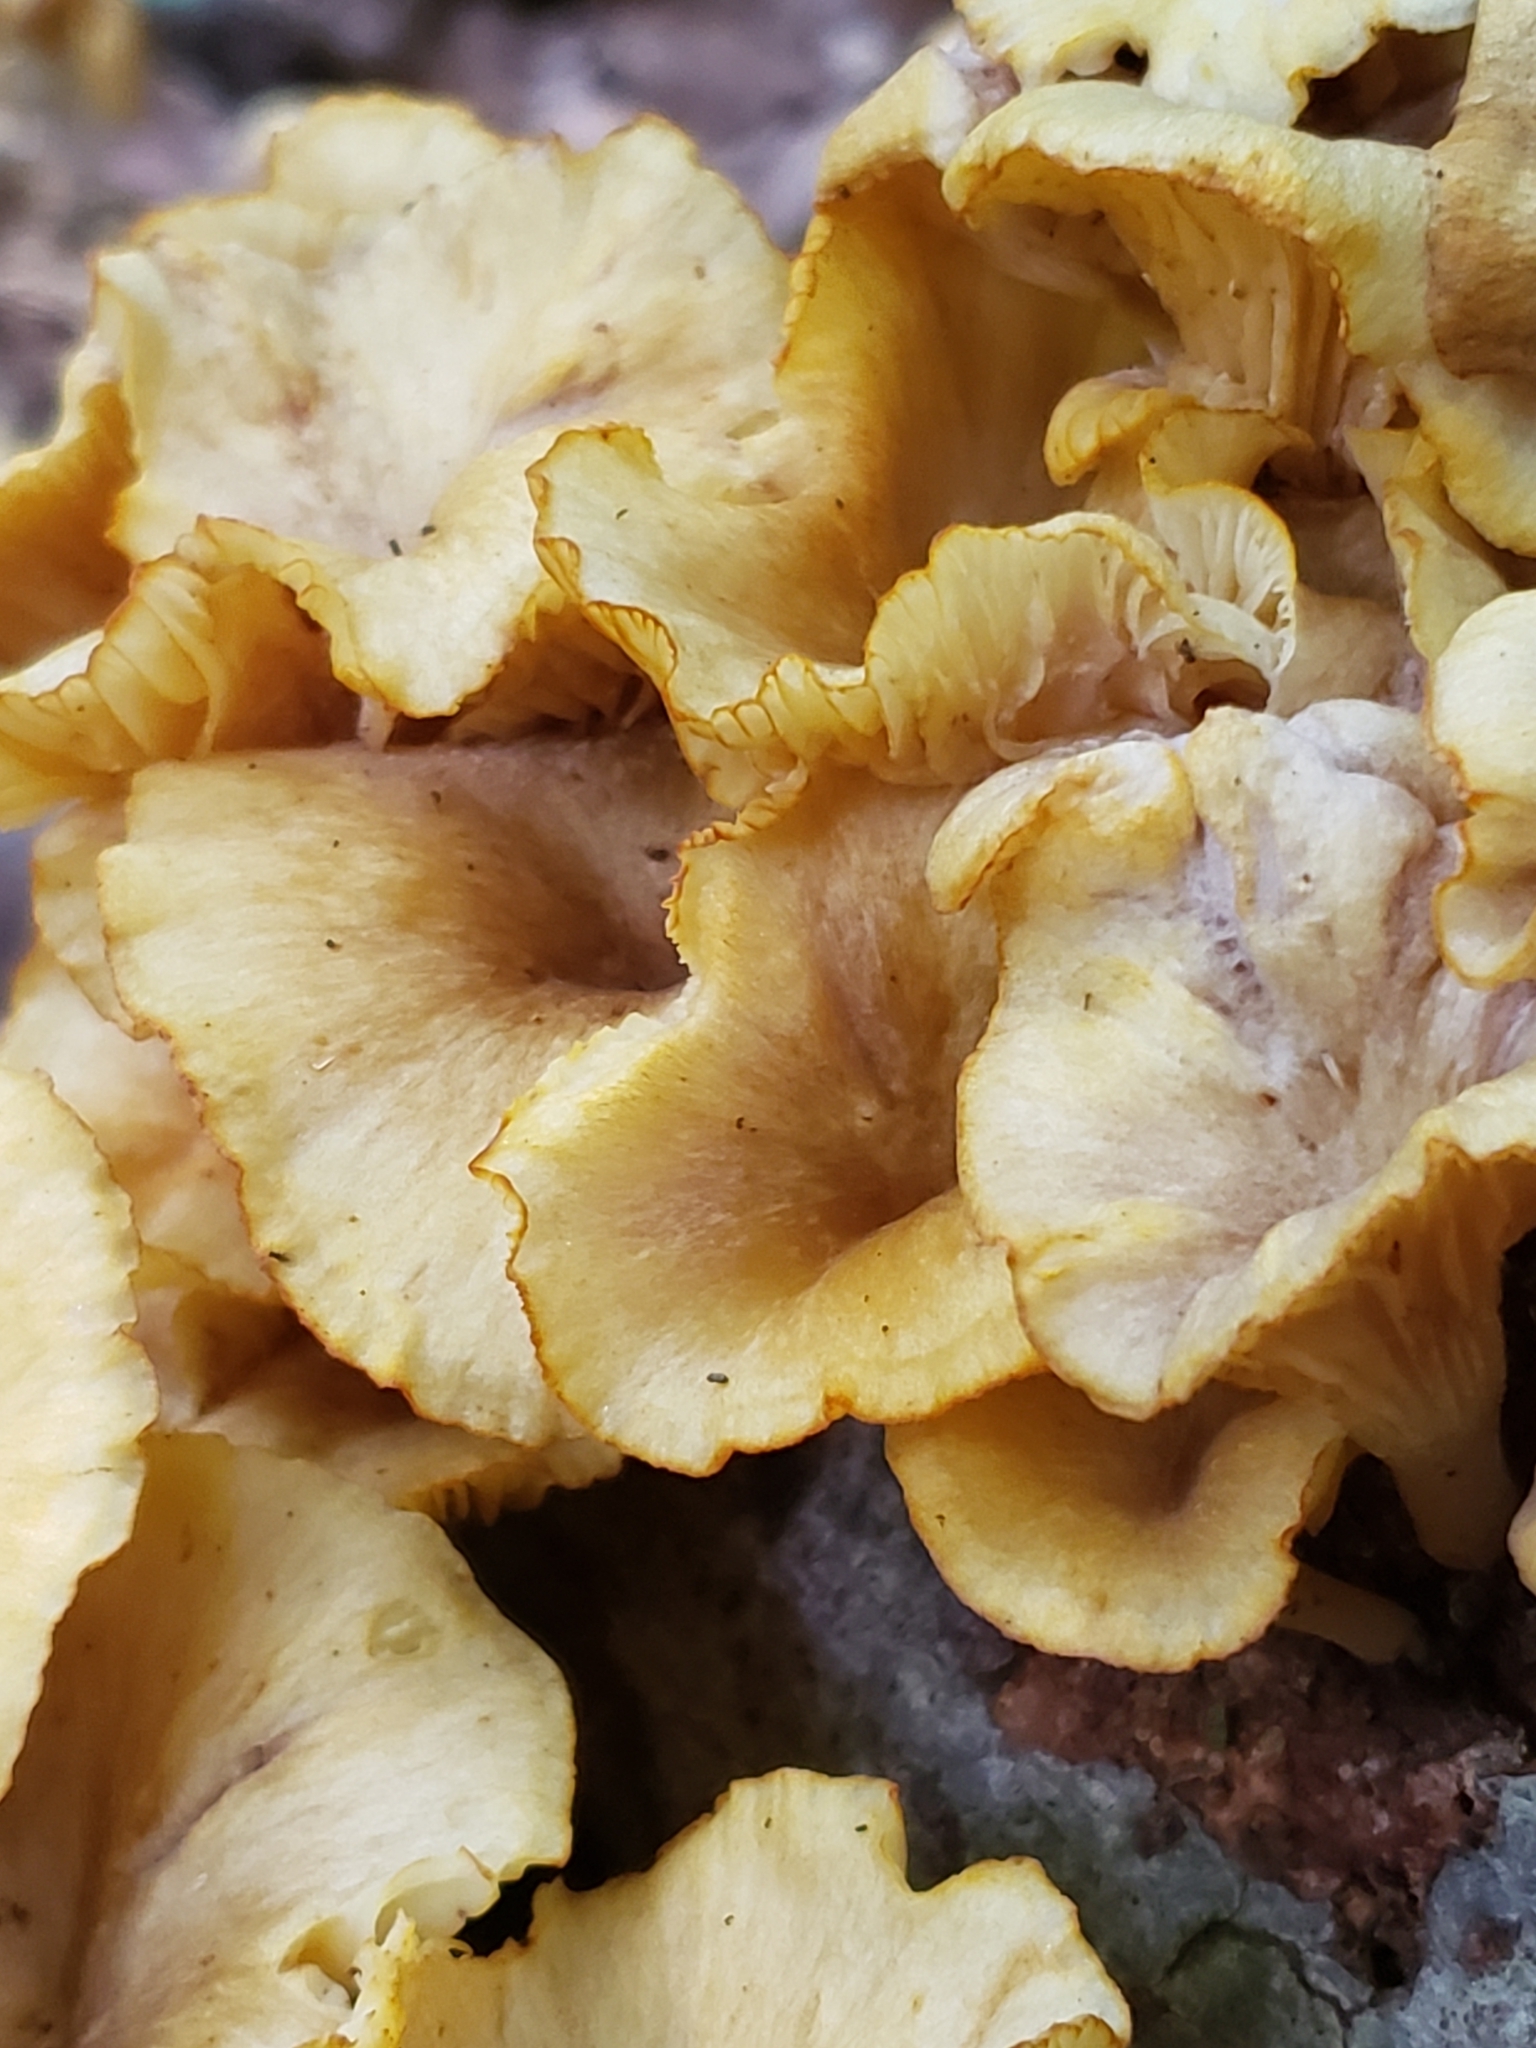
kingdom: Fungi
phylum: Basidiomycota
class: Agaricomycetes
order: Agaricales
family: Marasmiaceae
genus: Gerronema
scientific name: Gerronema strombodes
